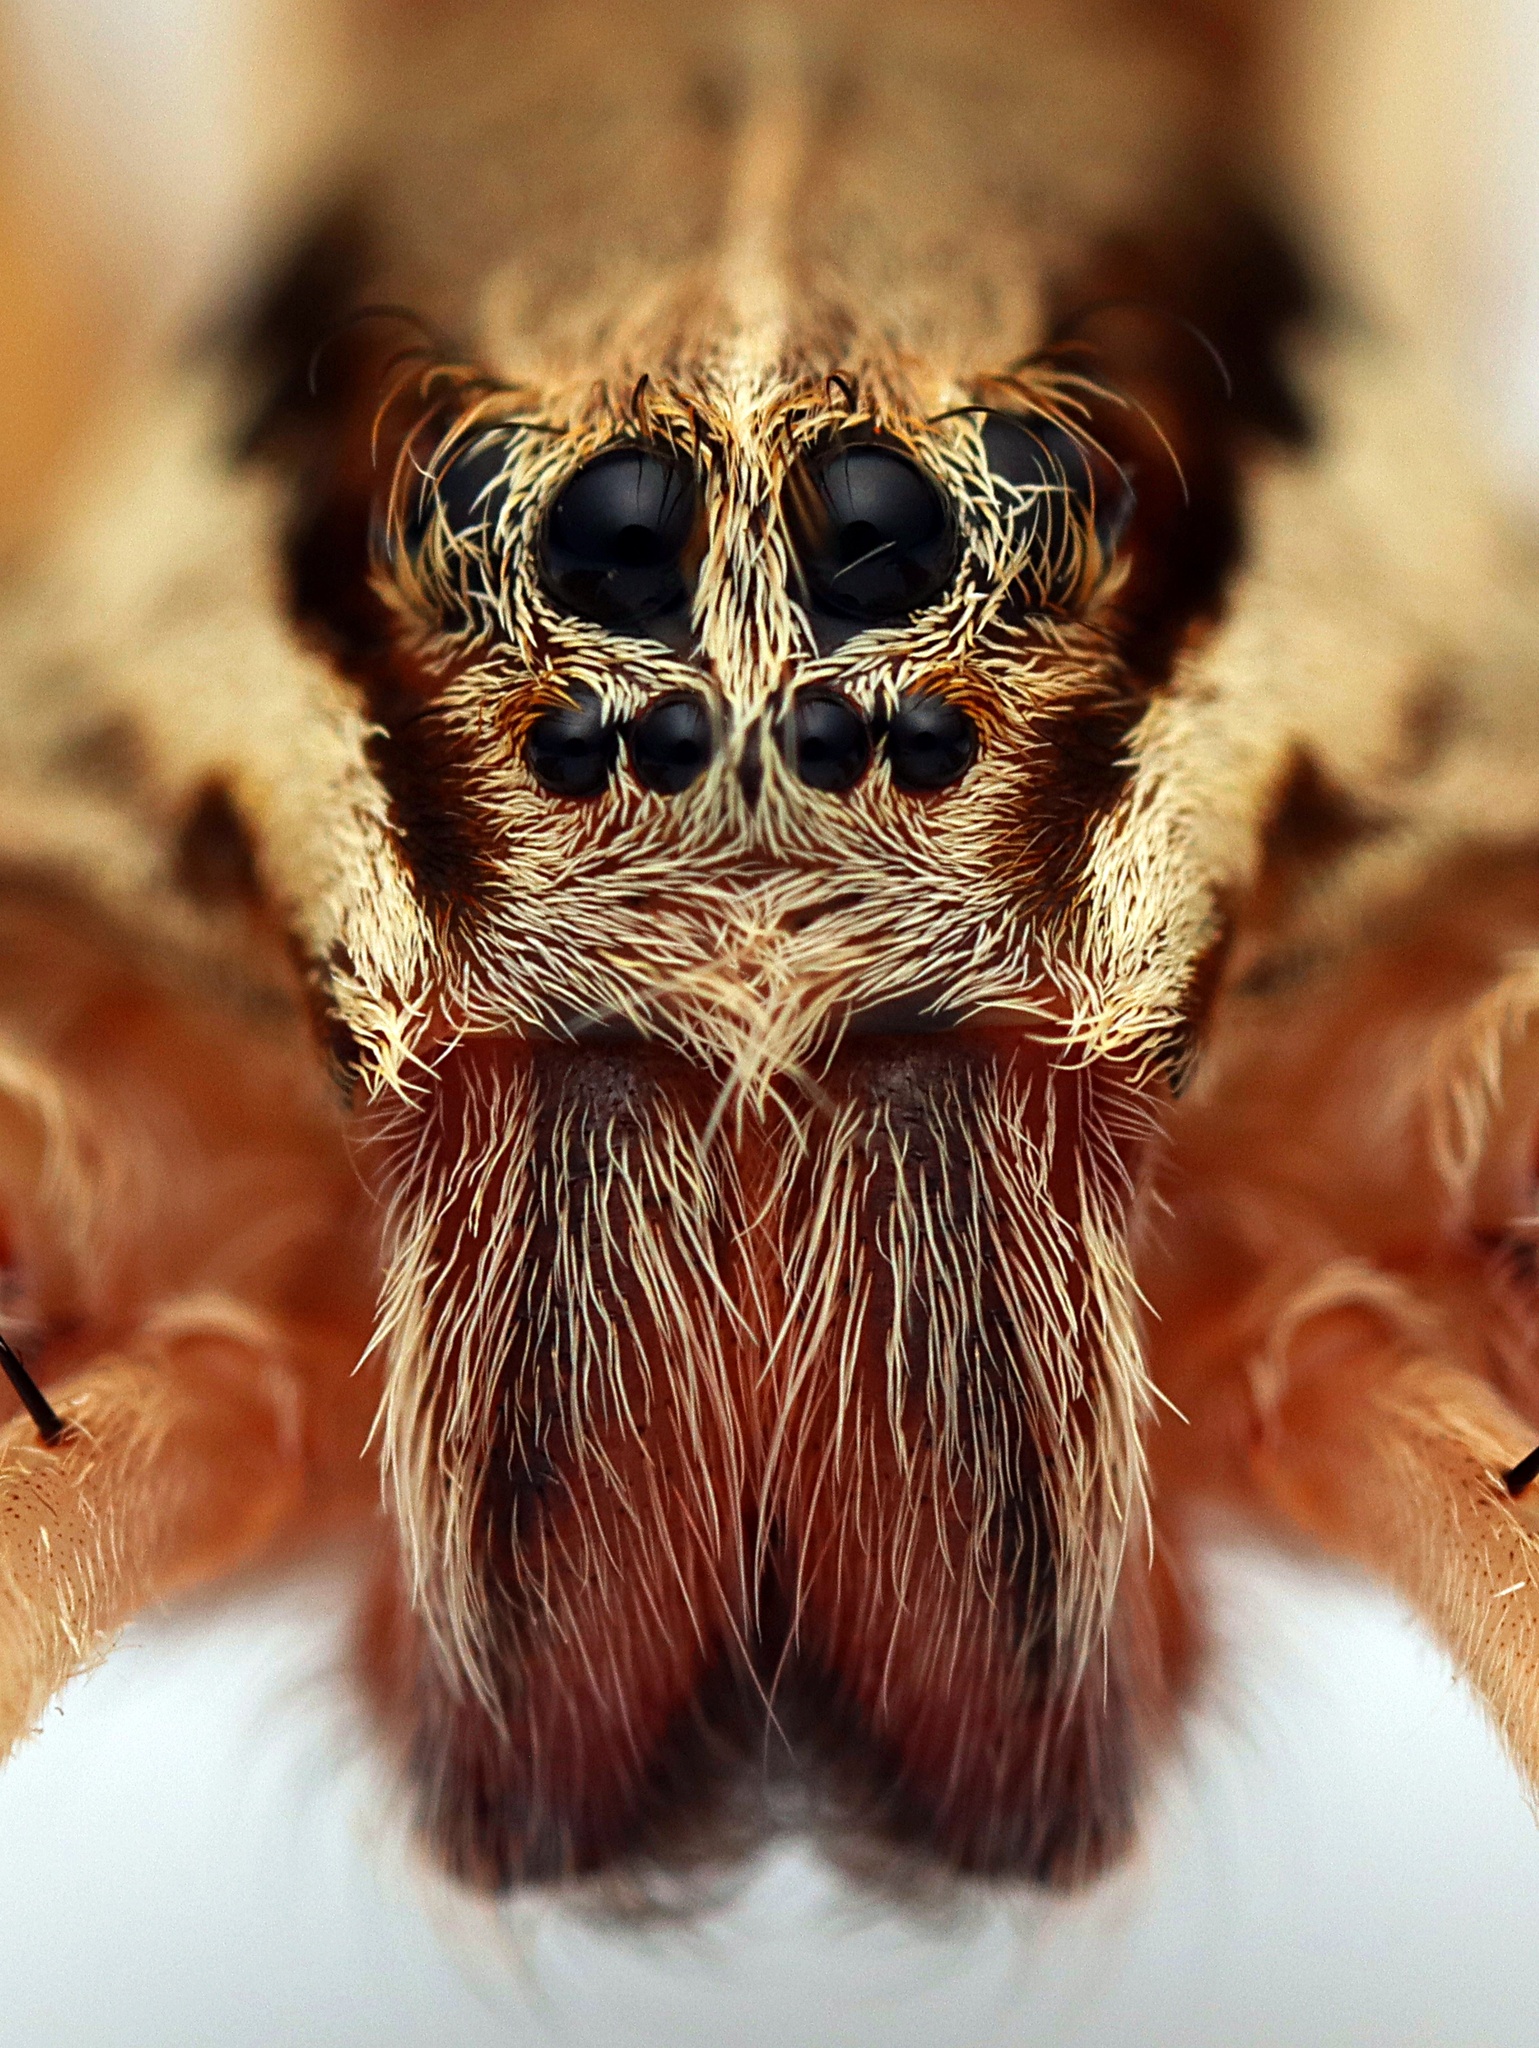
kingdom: Animalia
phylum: Arthropoda
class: Arachnida
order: Araneae
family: Pisauridae
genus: Dolomedes
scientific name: Dolomedes minor
